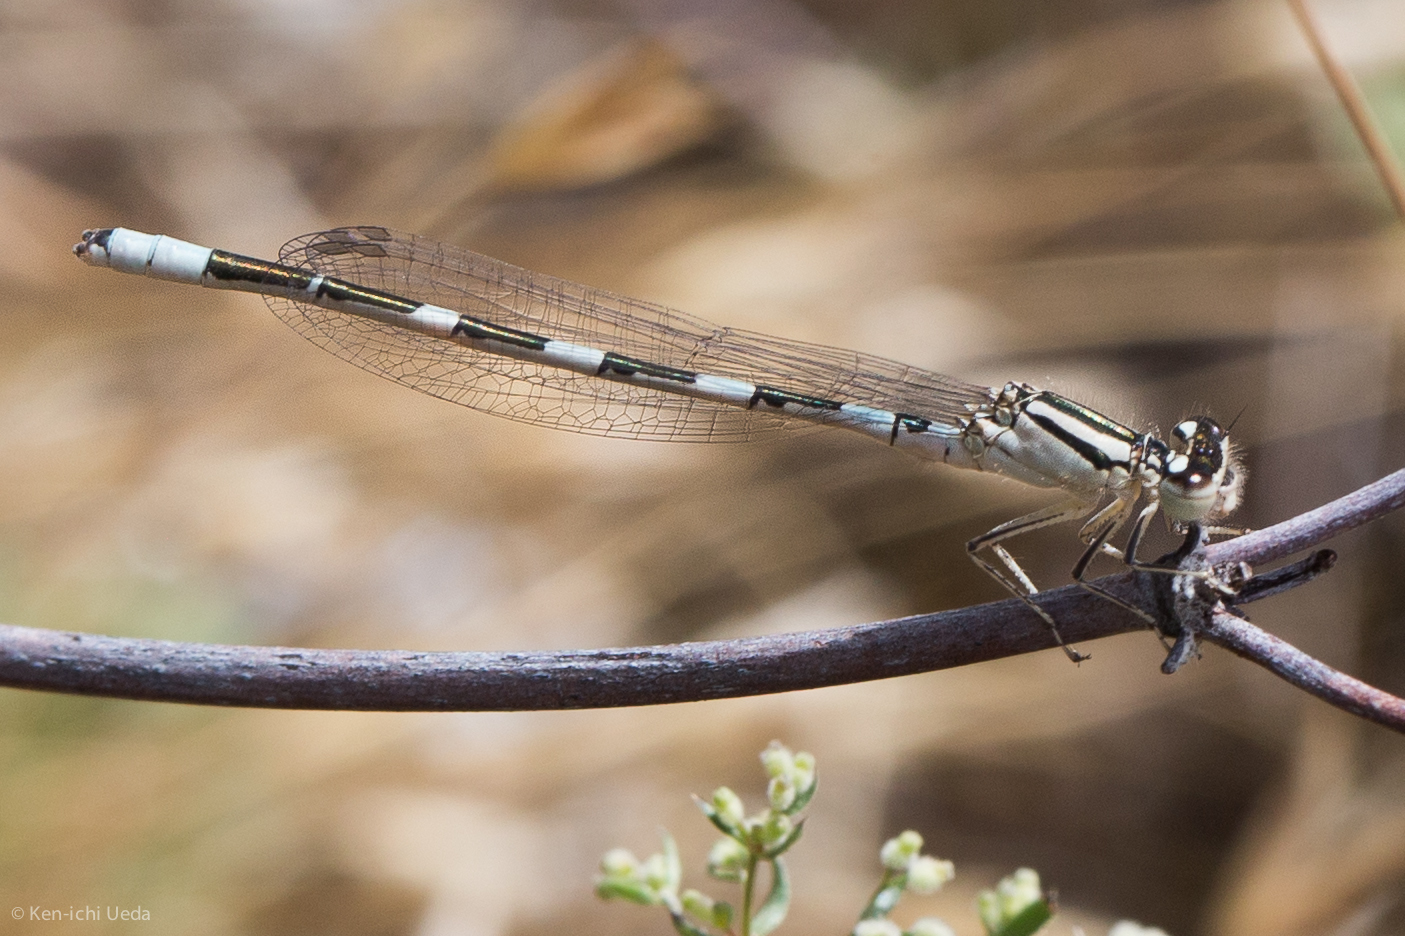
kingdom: Animalia
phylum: Arthropoda
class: Insecta
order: Odonata
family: Coenagrionidae
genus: Enallagma
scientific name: Enallagma carunculatum
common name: Tule bluet
